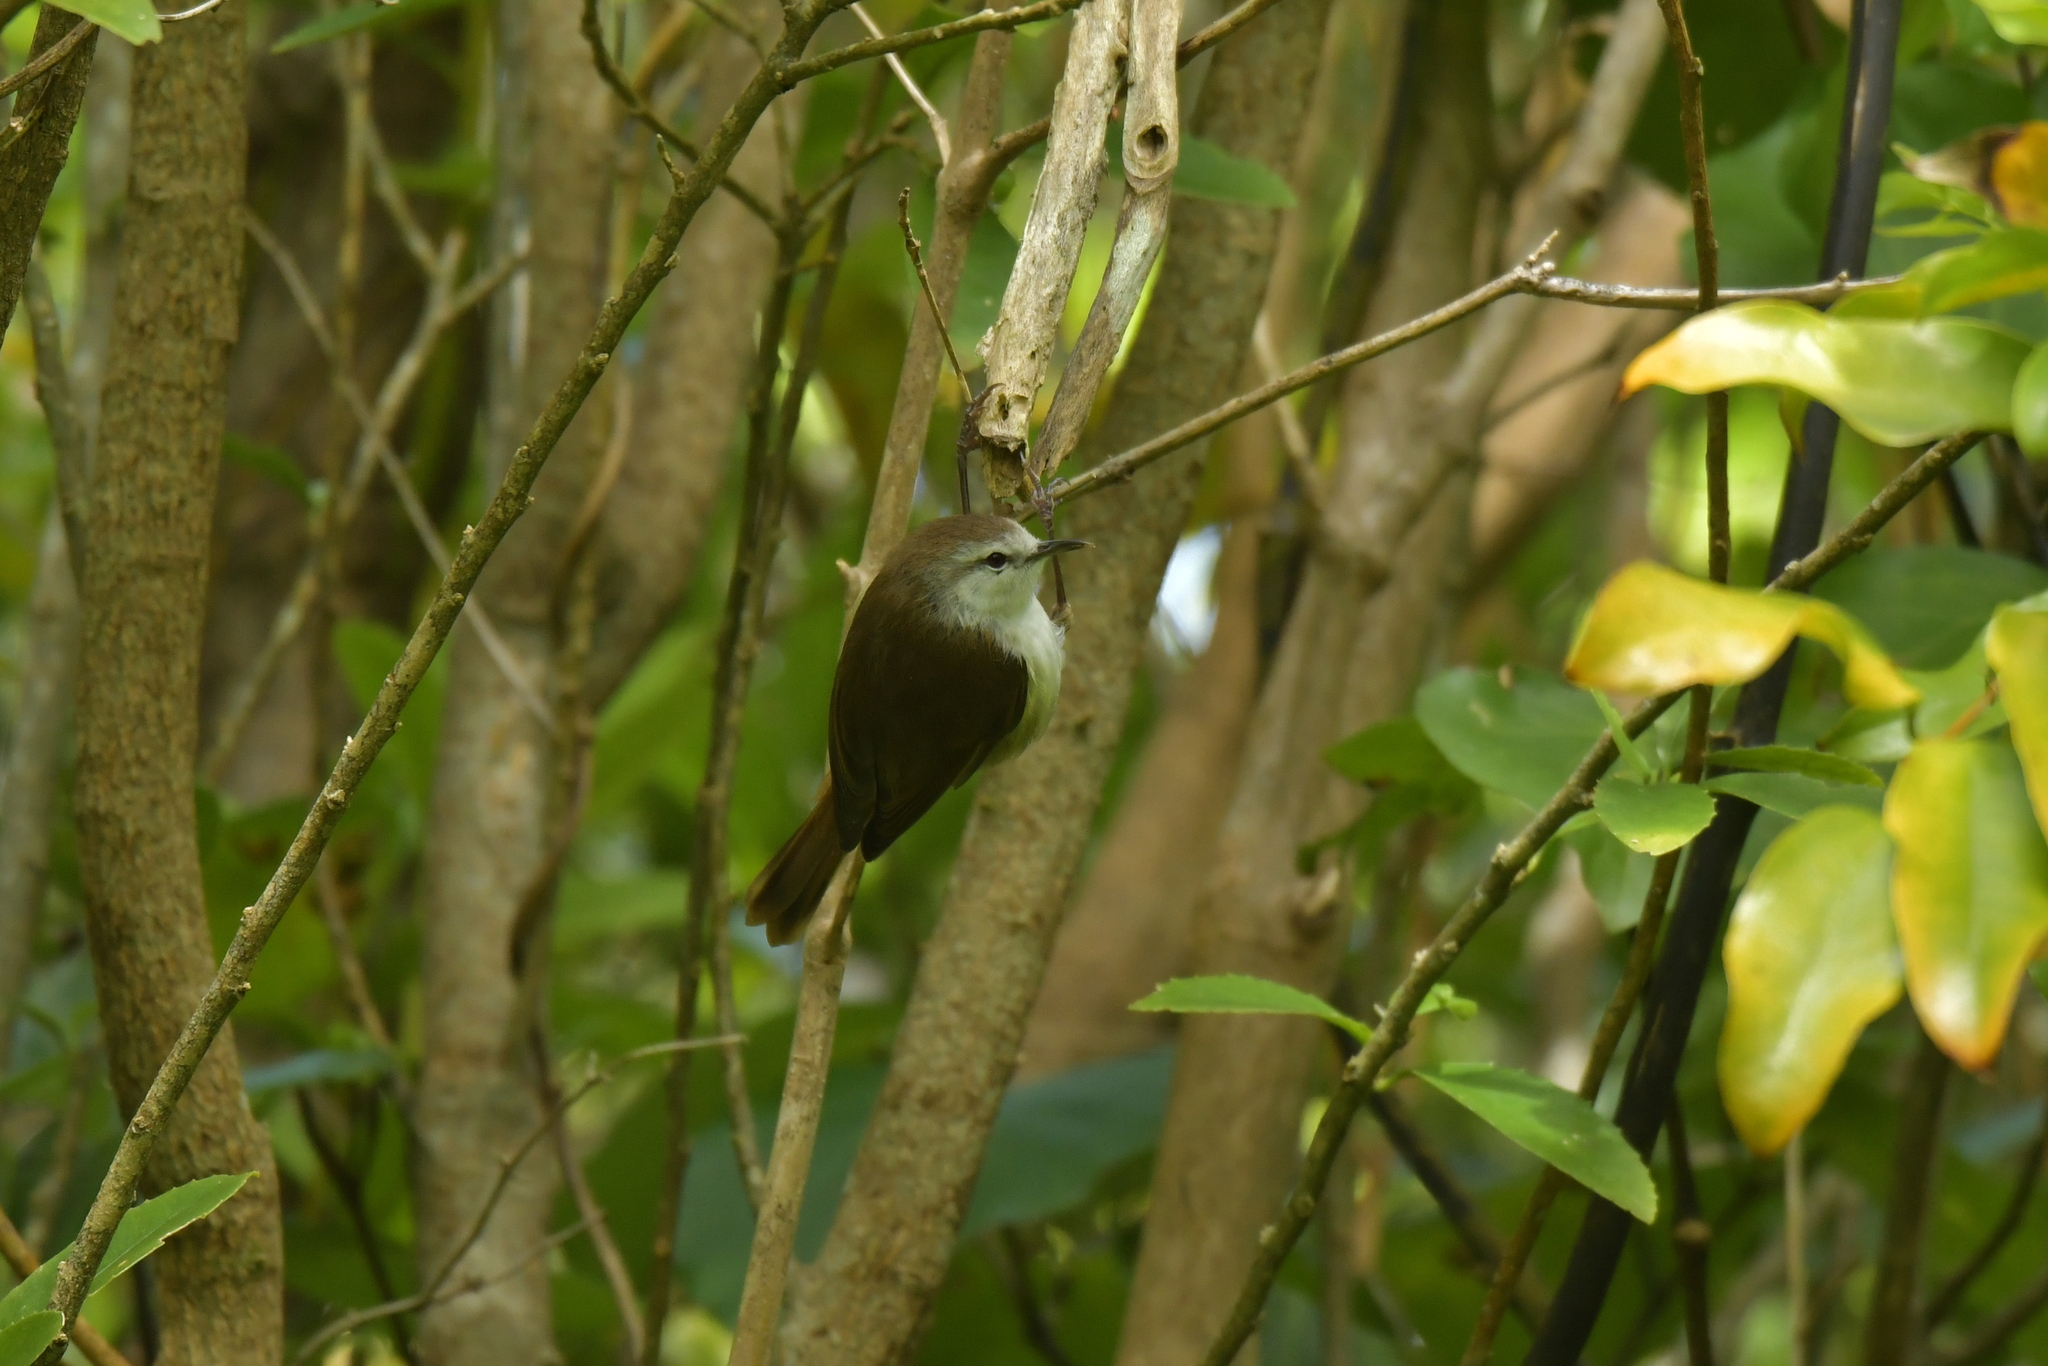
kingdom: Animalia
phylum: Chordata
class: Aves
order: Passeriformes
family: Acanthizidae
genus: Gerygone
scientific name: Gerygone albofrontata
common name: Chatham gerygone
